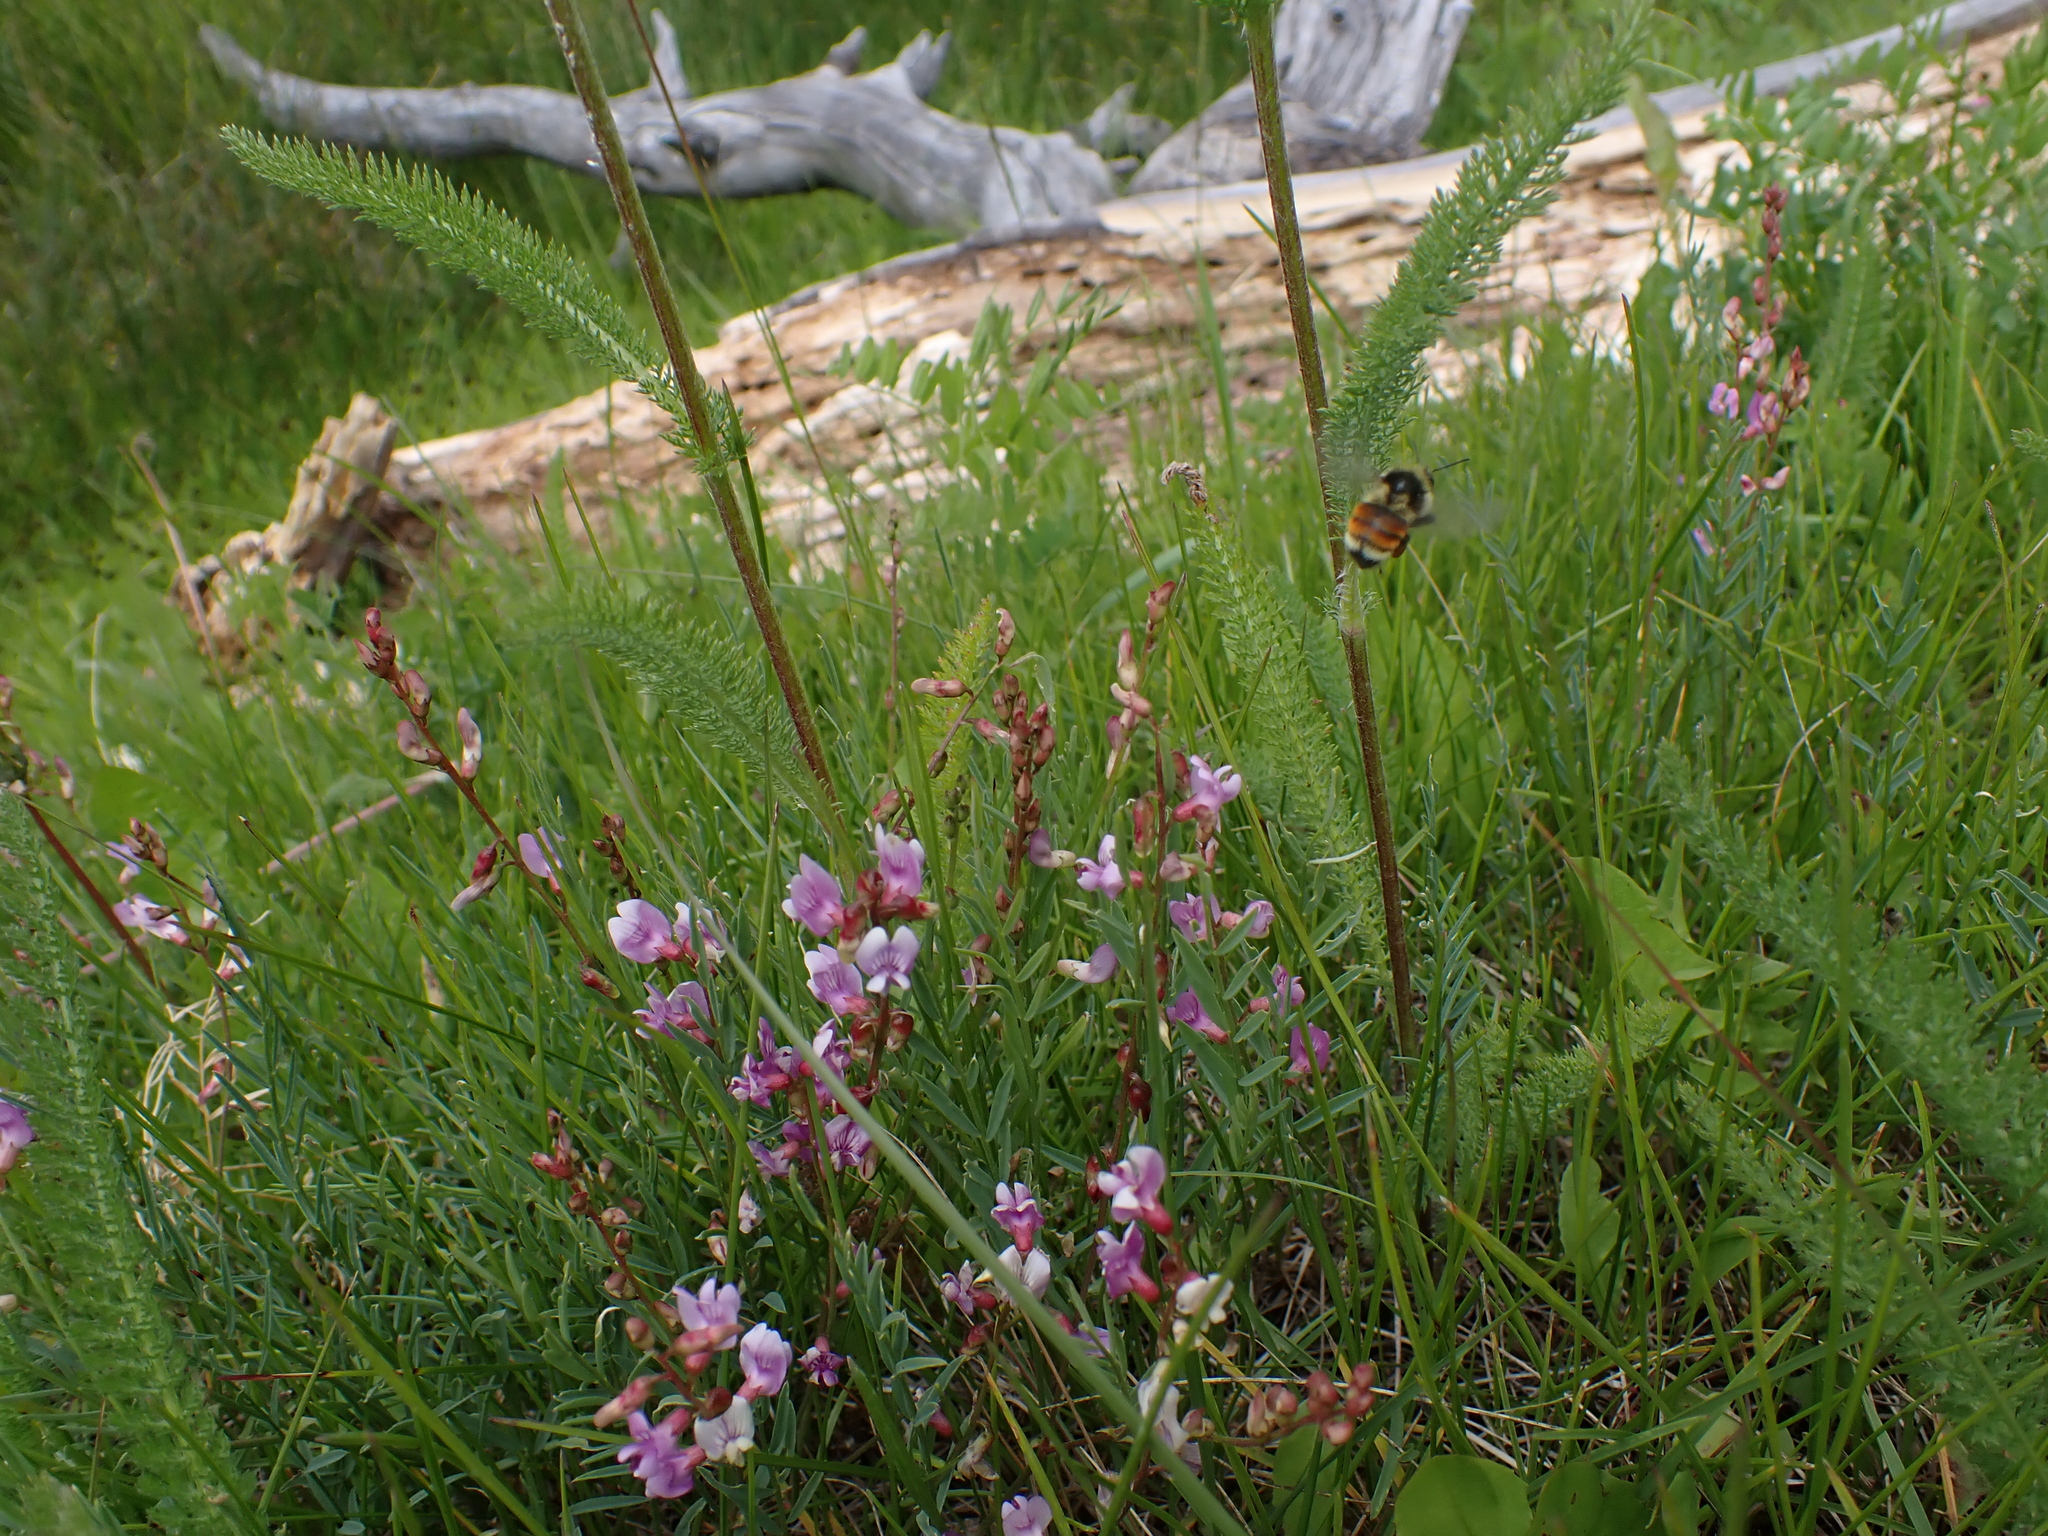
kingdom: Animalia
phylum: Arthropoda
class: Insecta
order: Hymenoptera
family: Apidae
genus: Bombus
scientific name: Bombus ternarius
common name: Tri-colored bumble bee
